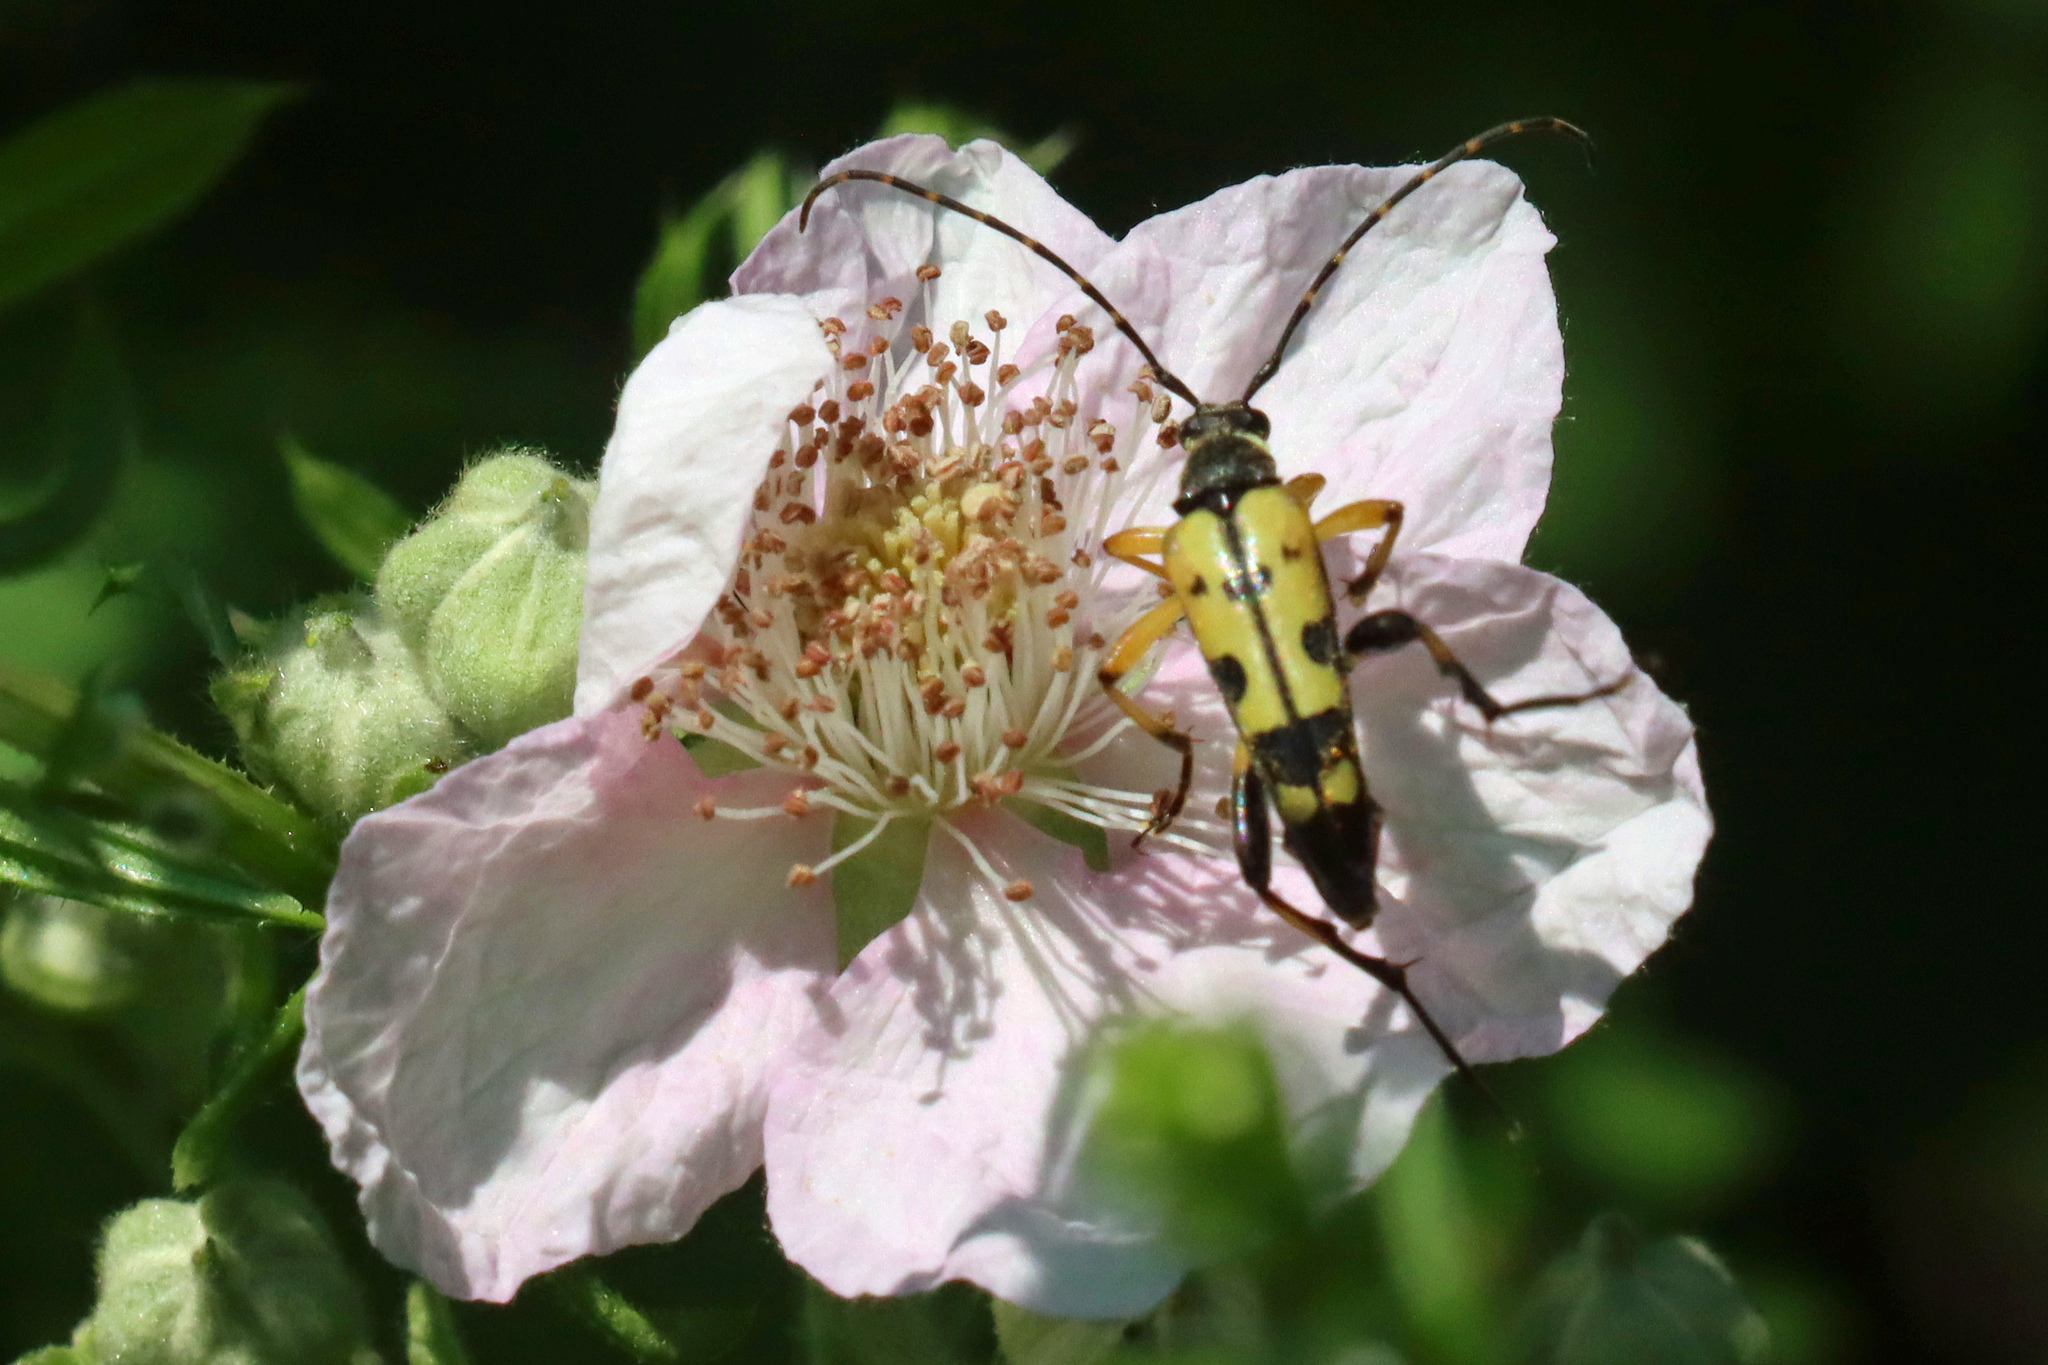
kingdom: Animalia
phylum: Arthropoda
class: Insecta
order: Coleoptera
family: Cerambycidae
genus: Rutpela
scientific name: Rutpela maculata
